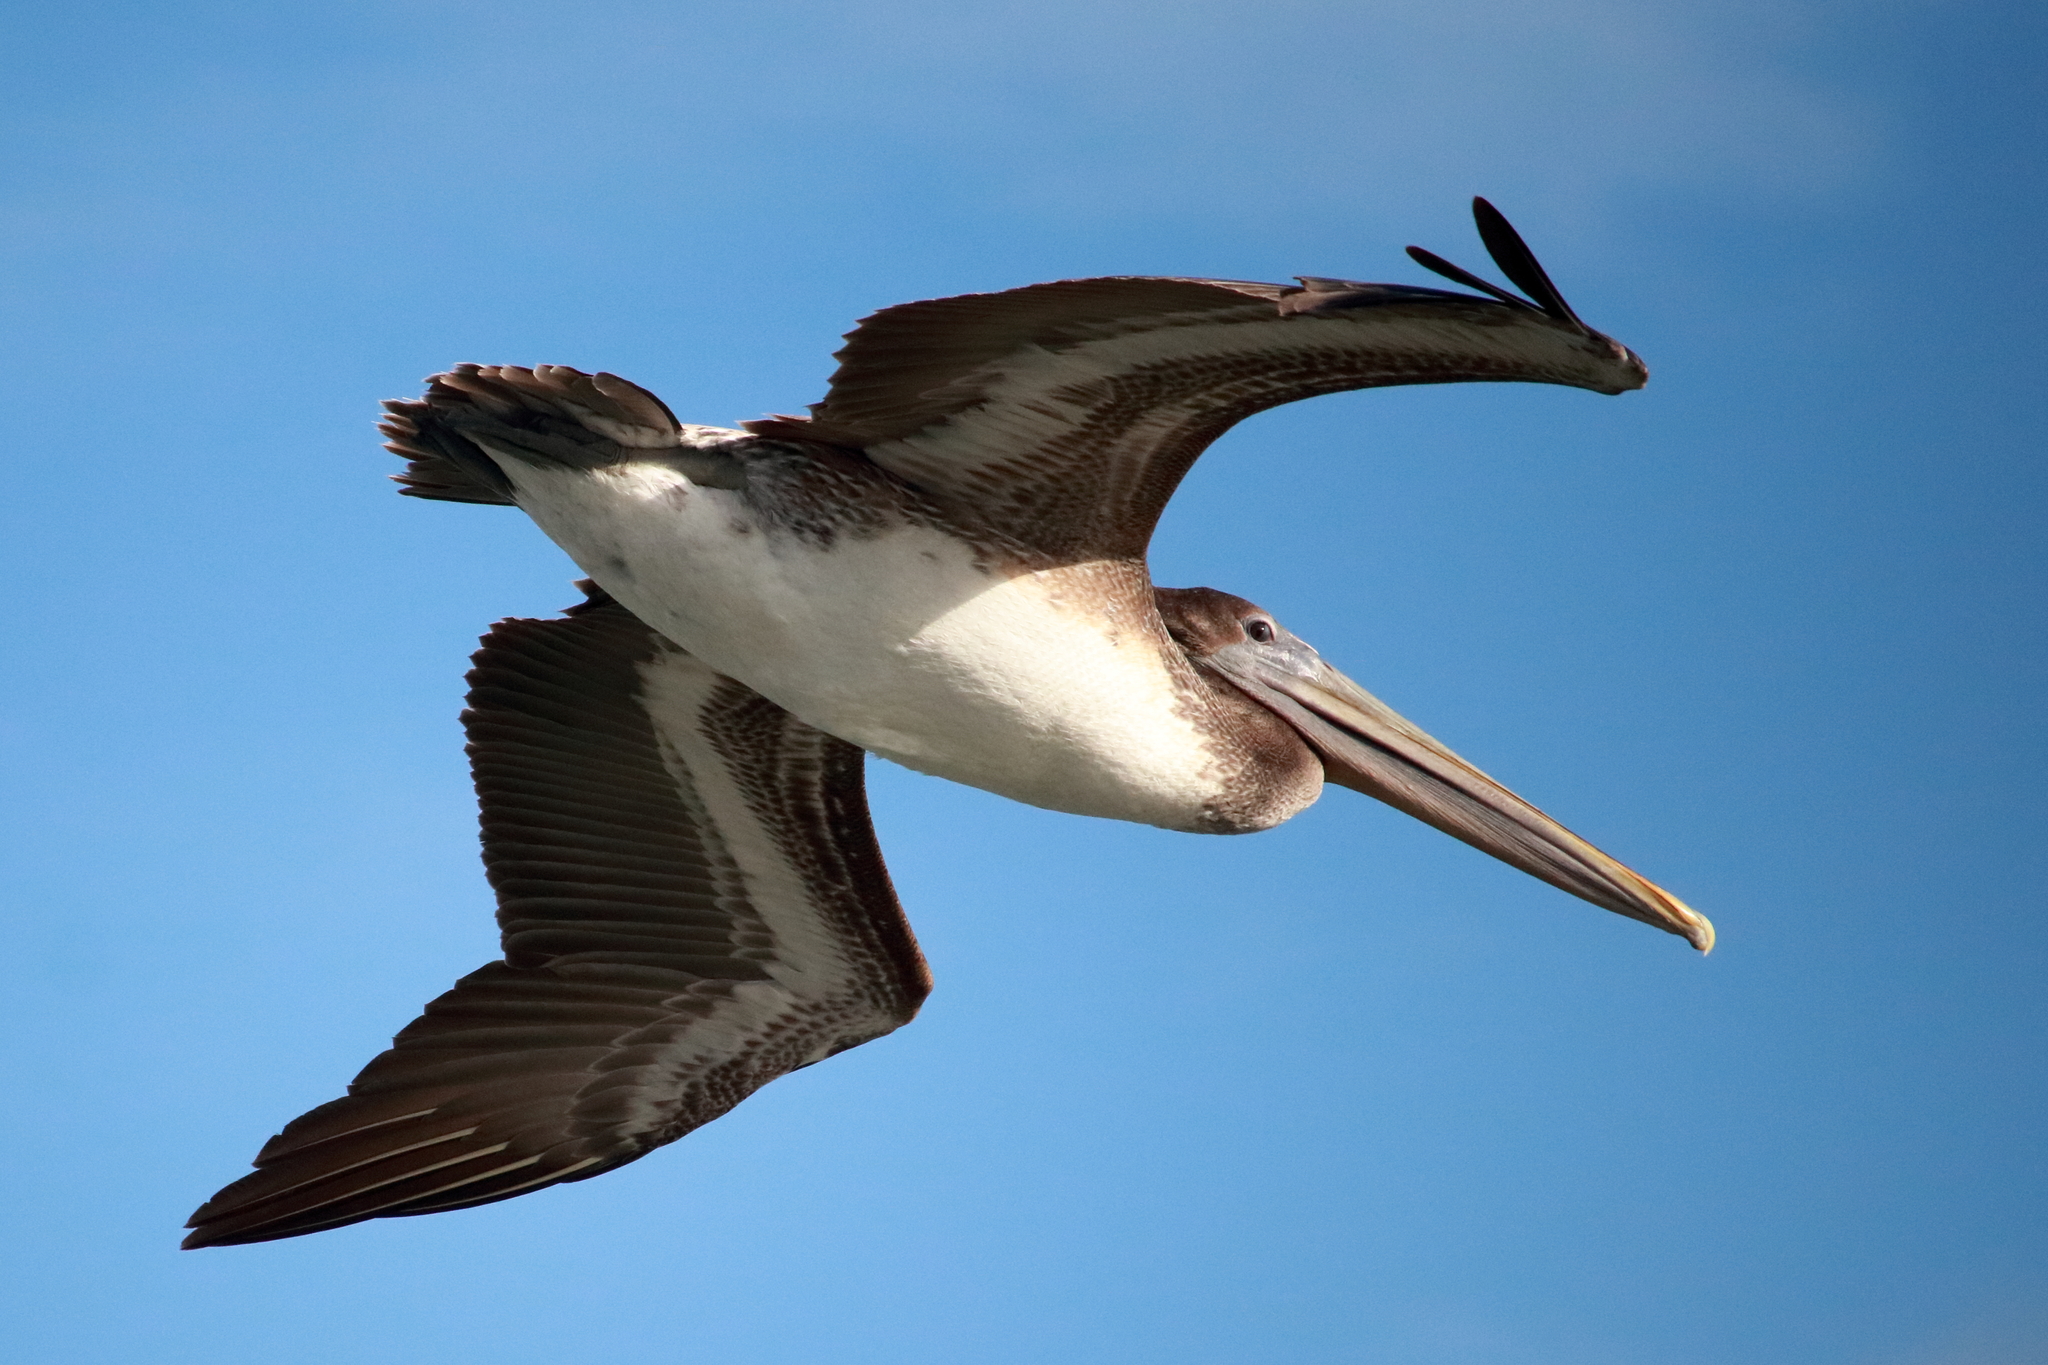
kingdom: Animalia
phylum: Chordata
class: Aves
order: Pelecaniformes
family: Pelecanidae
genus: Pelecanus
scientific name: Pelecanus occidentalis
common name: Brown pelican
